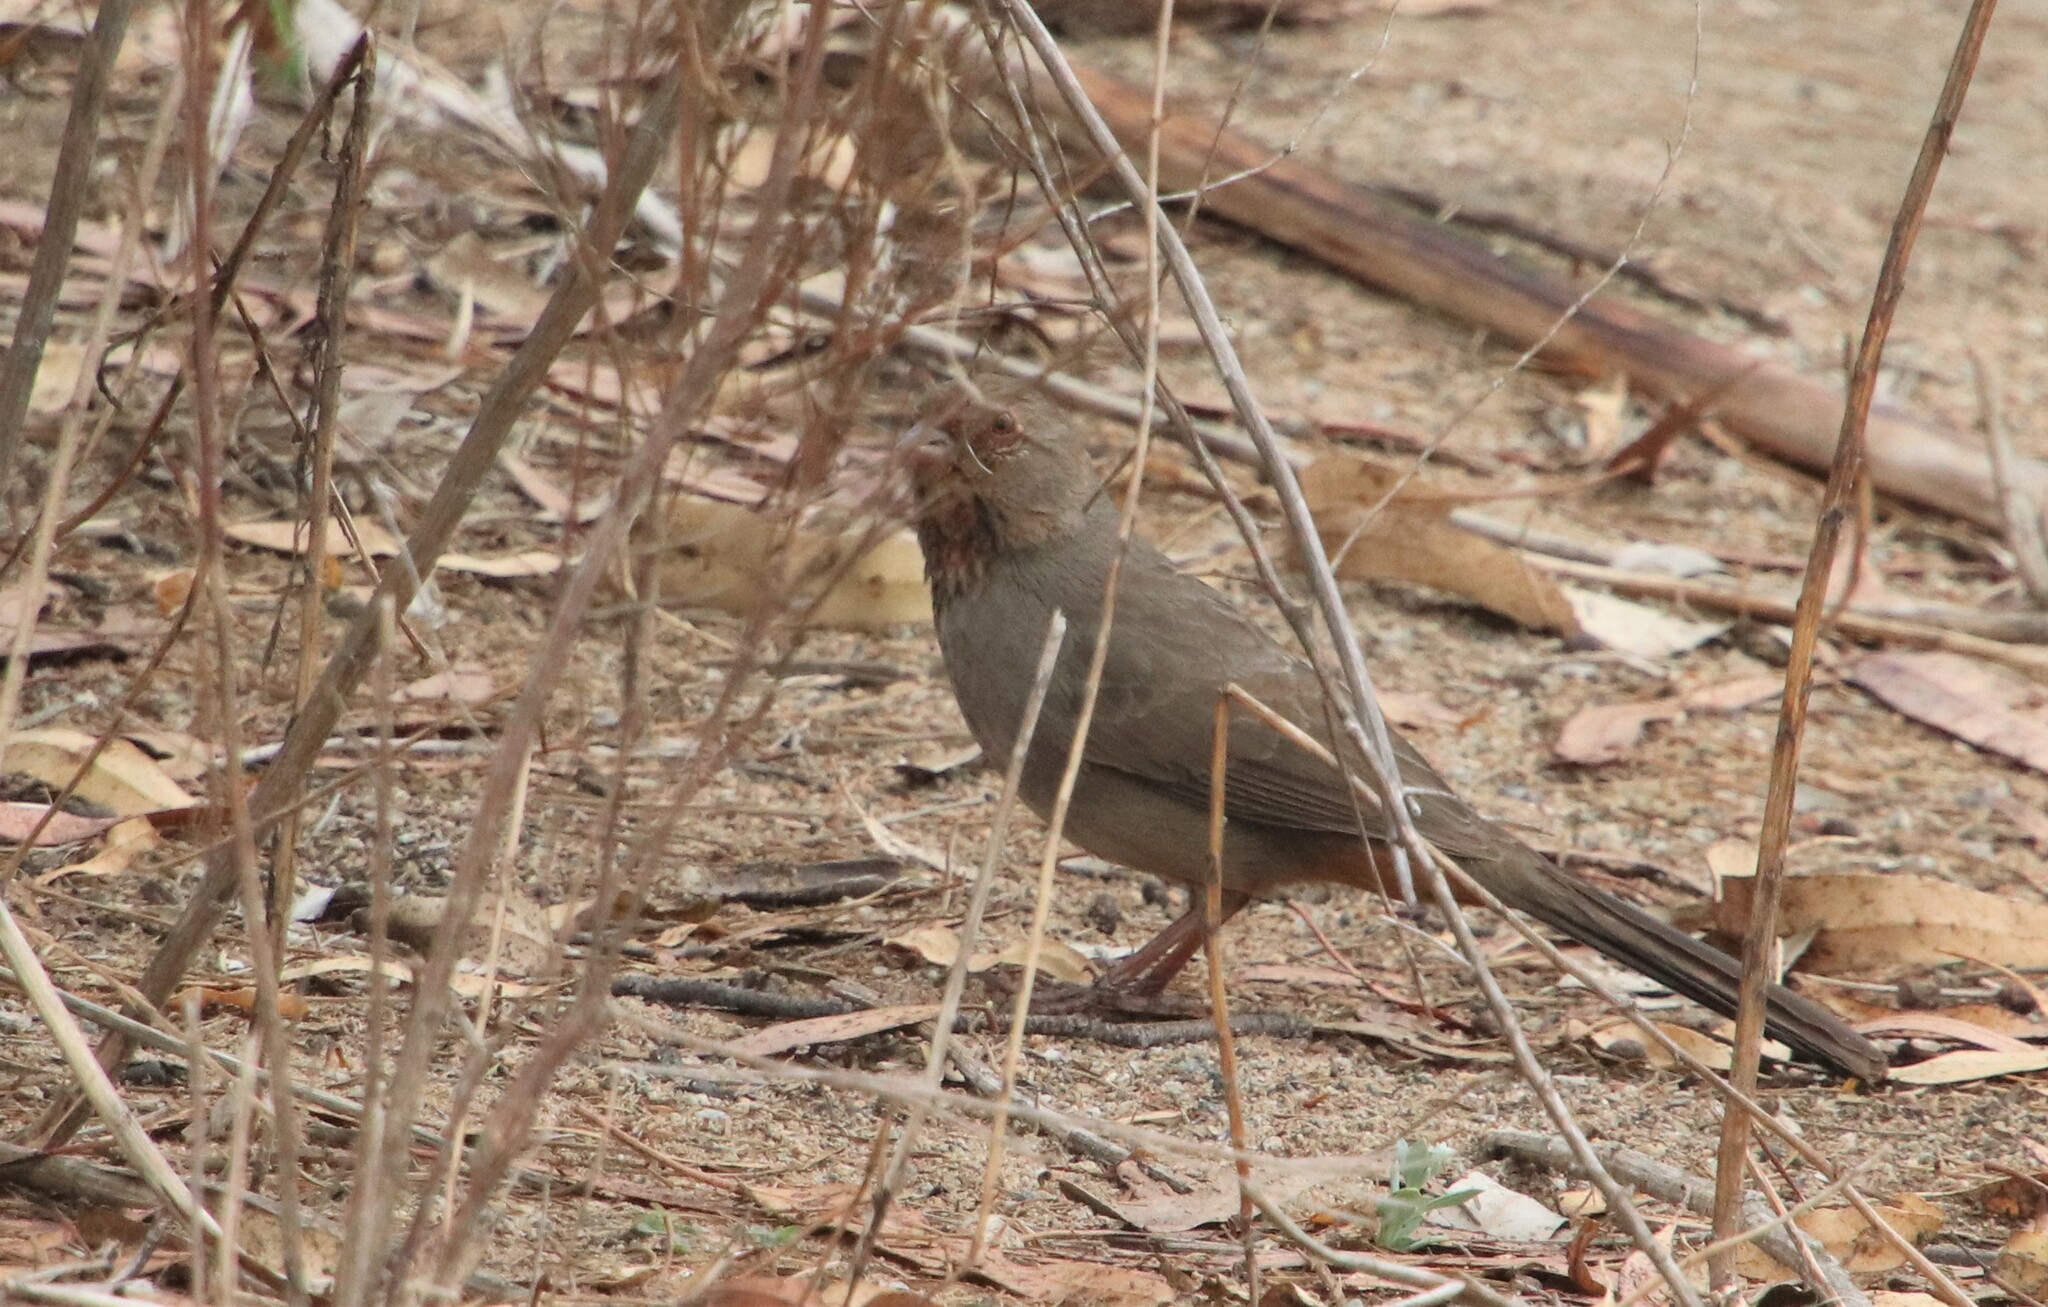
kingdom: Animalia
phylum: Chordata
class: Aves
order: Passeriformes
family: Passerellidae
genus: Melozone
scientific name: Melozone crissalis
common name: California towhee
